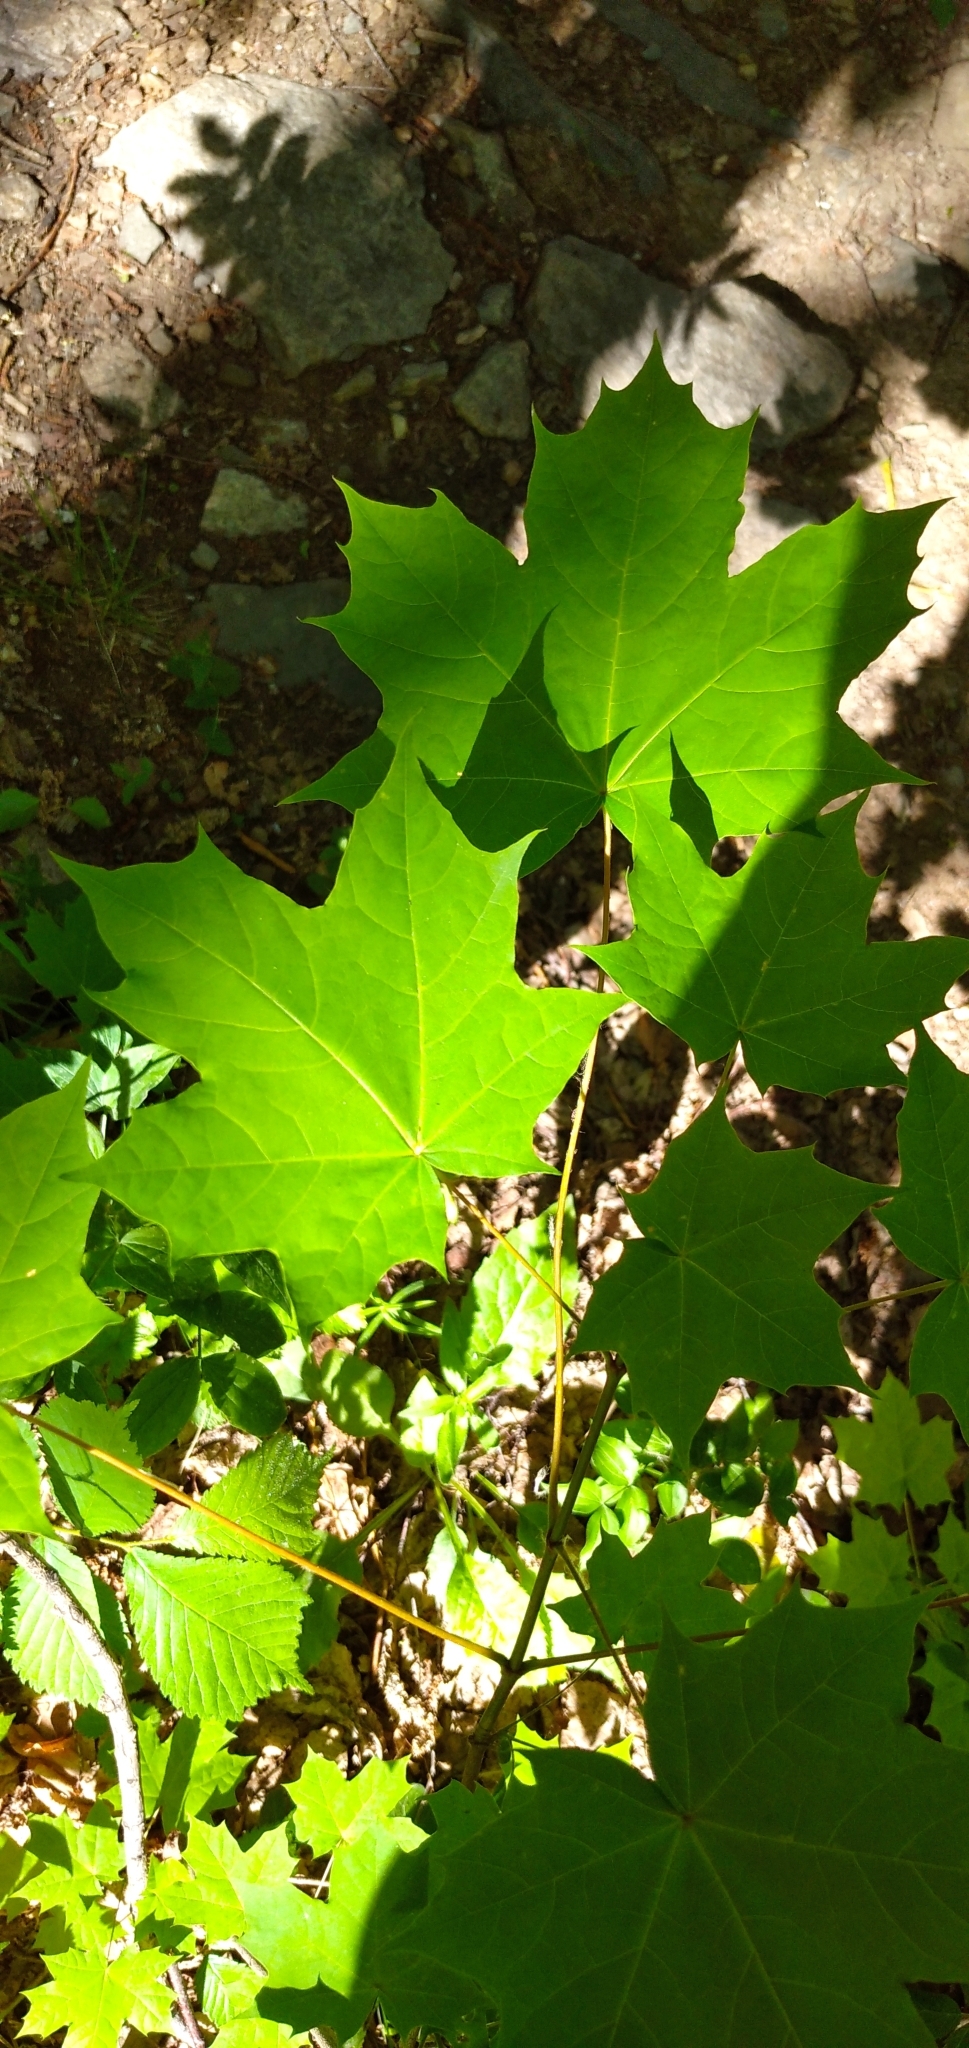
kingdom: Plantae
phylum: Tracheophyta
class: Magnoliopsida
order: Sapindales
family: Sapindaceae
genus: Acer
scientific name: Acer platanoides
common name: Norway maple
